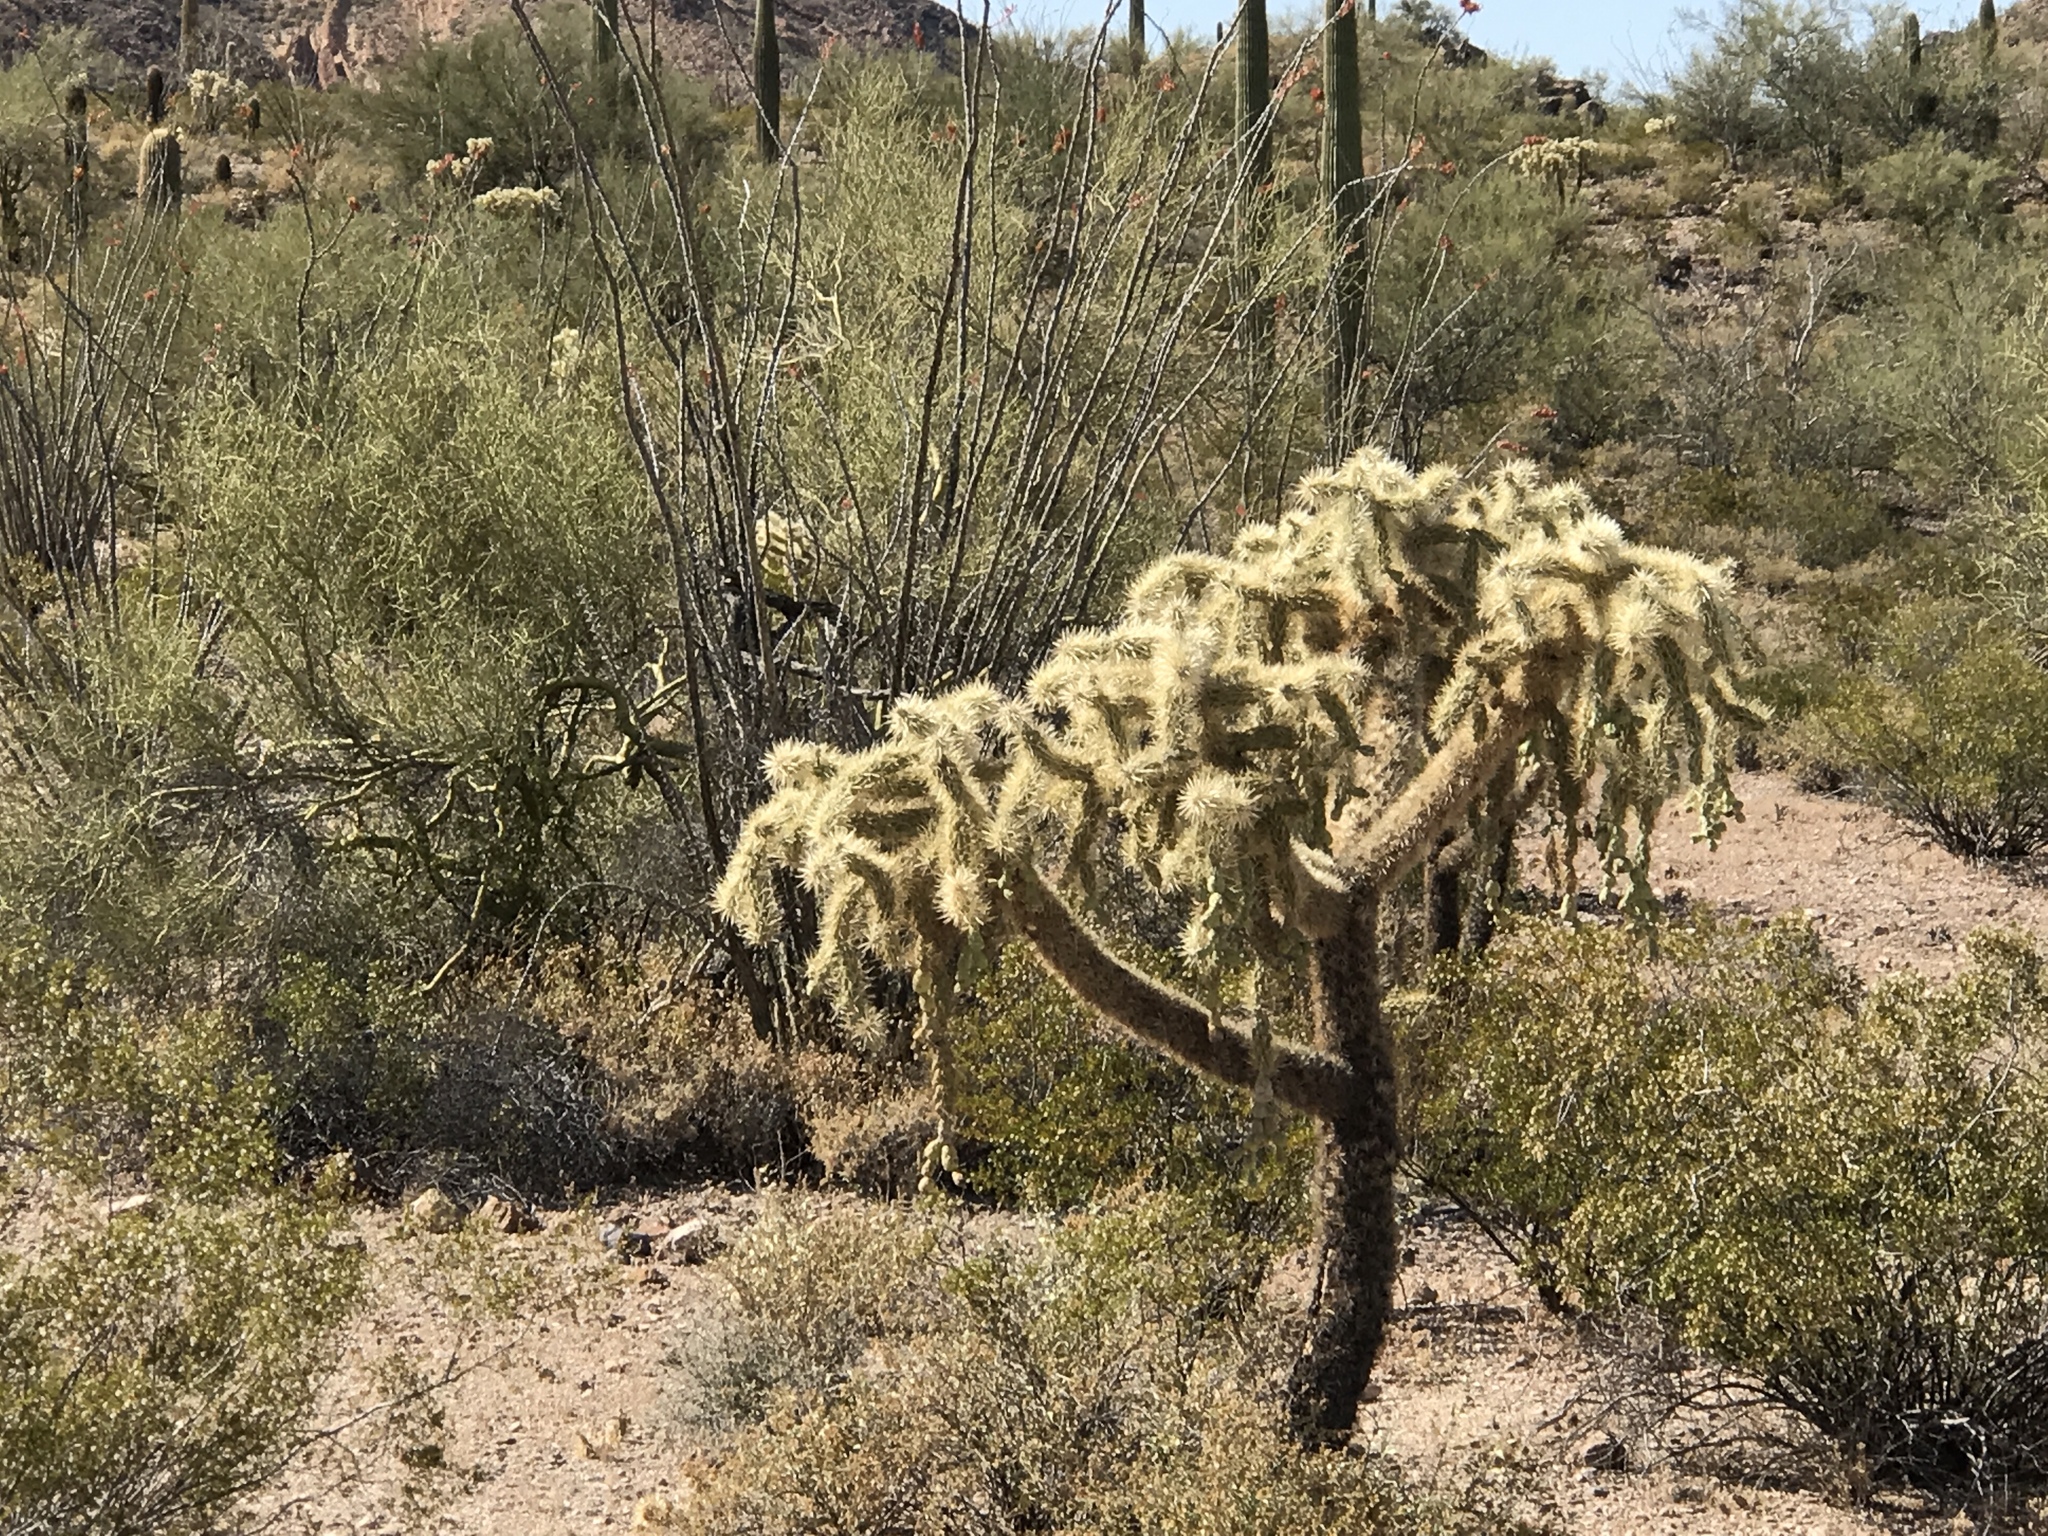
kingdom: Plantae
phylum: Tracheophyta
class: Magnoliopsida
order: Caryophyllales
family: Cactaceae
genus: Cylindropuntia
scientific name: Cylindropuntia fulgida
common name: Jumping cholla
